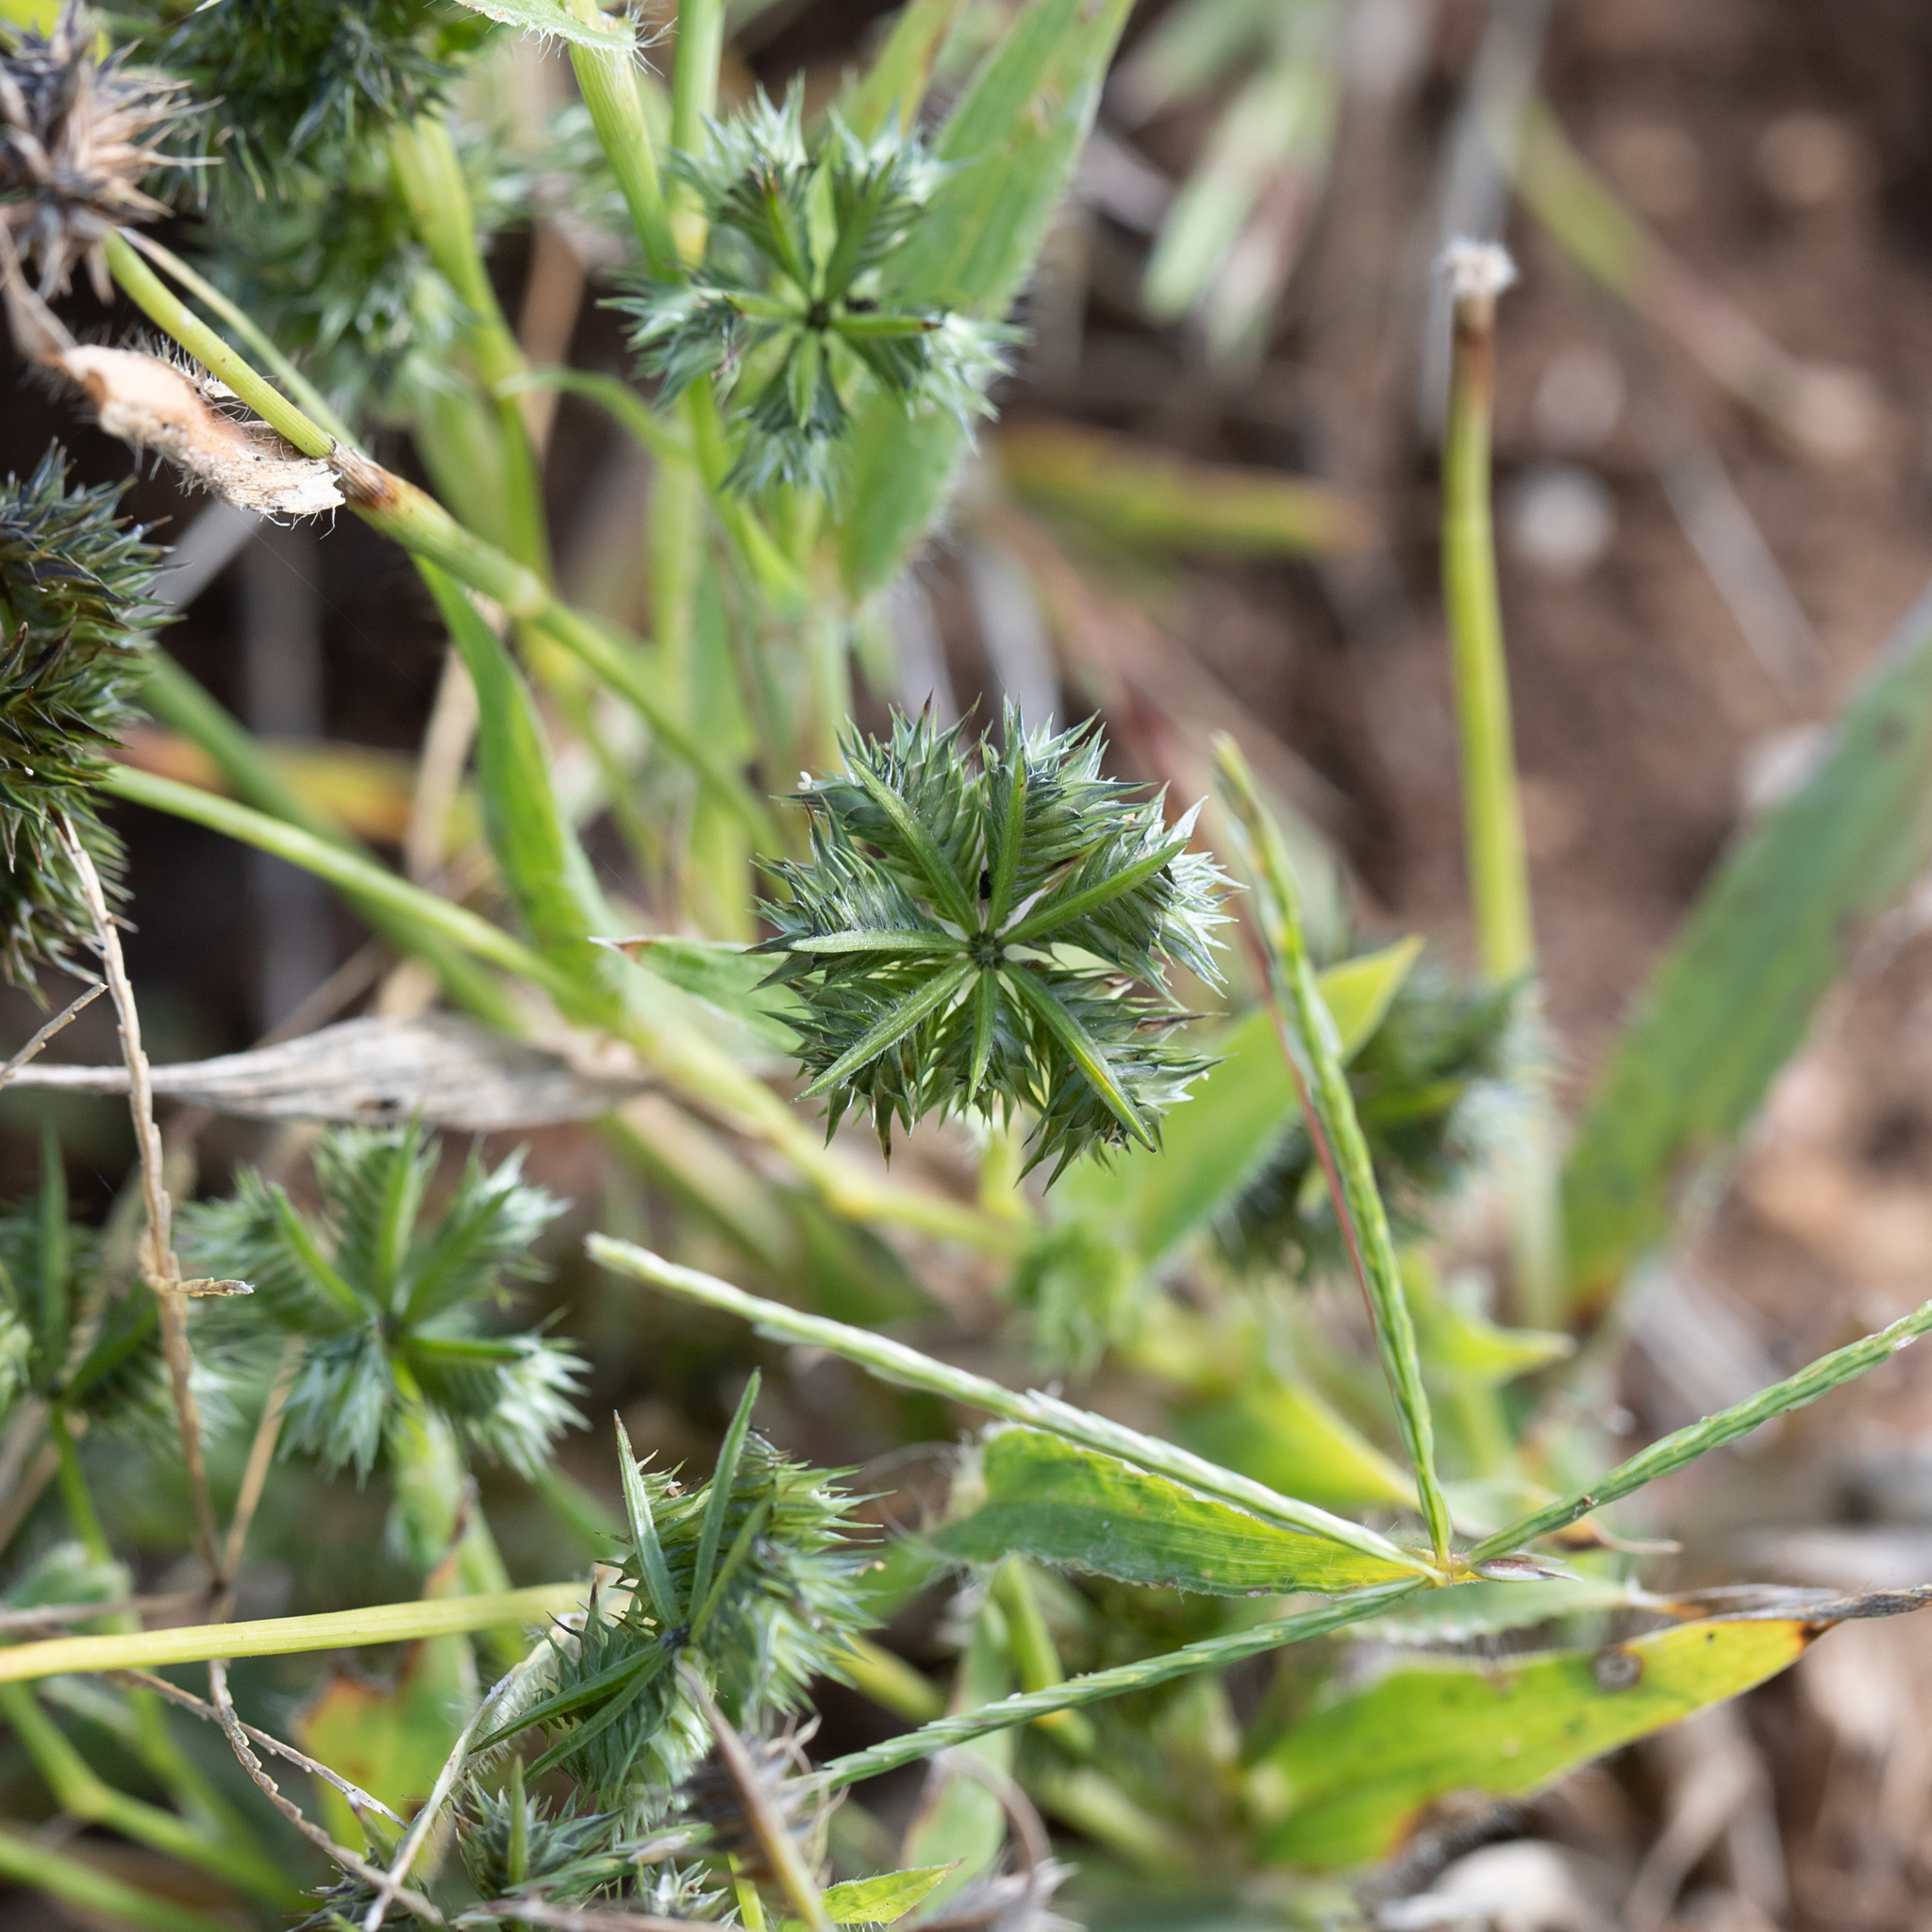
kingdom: Plantae
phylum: Tracheophyta
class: Liliopsida
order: Poales
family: Poaceae
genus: Dactyloctenium
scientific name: Dactyloctenium radulans
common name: Button-grass
